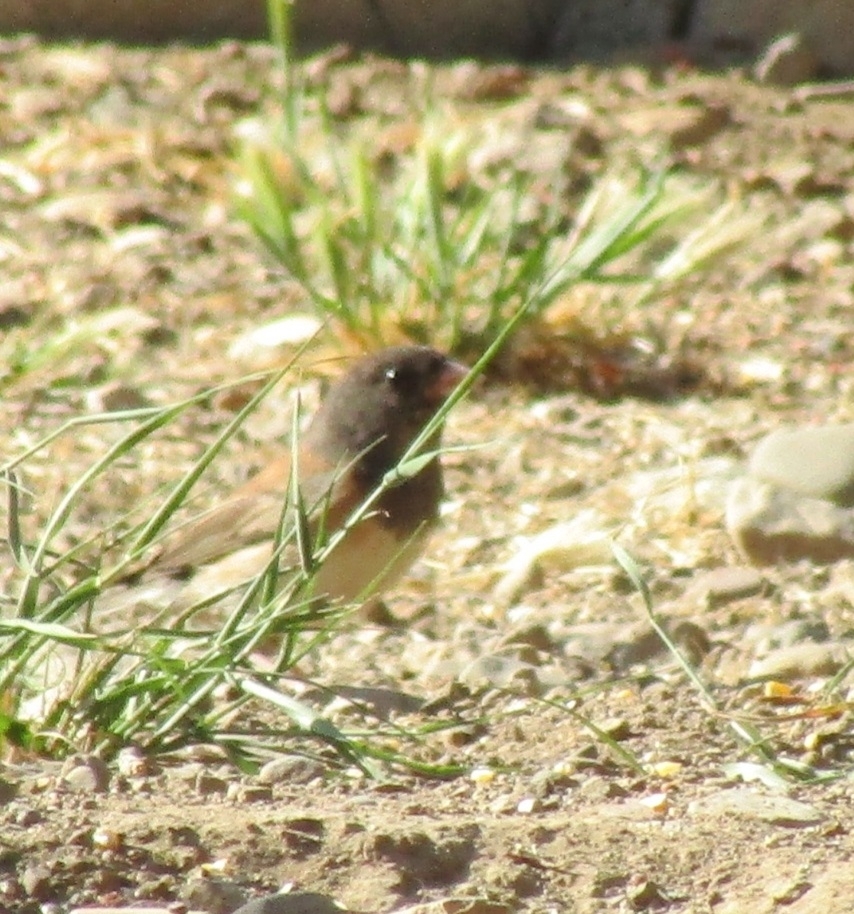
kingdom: Animalia
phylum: Chordata
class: Aves
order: Passeriformes
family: Passerellidae
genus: Junco
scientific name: Junco hyemalis
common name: Dark-eyed junco
